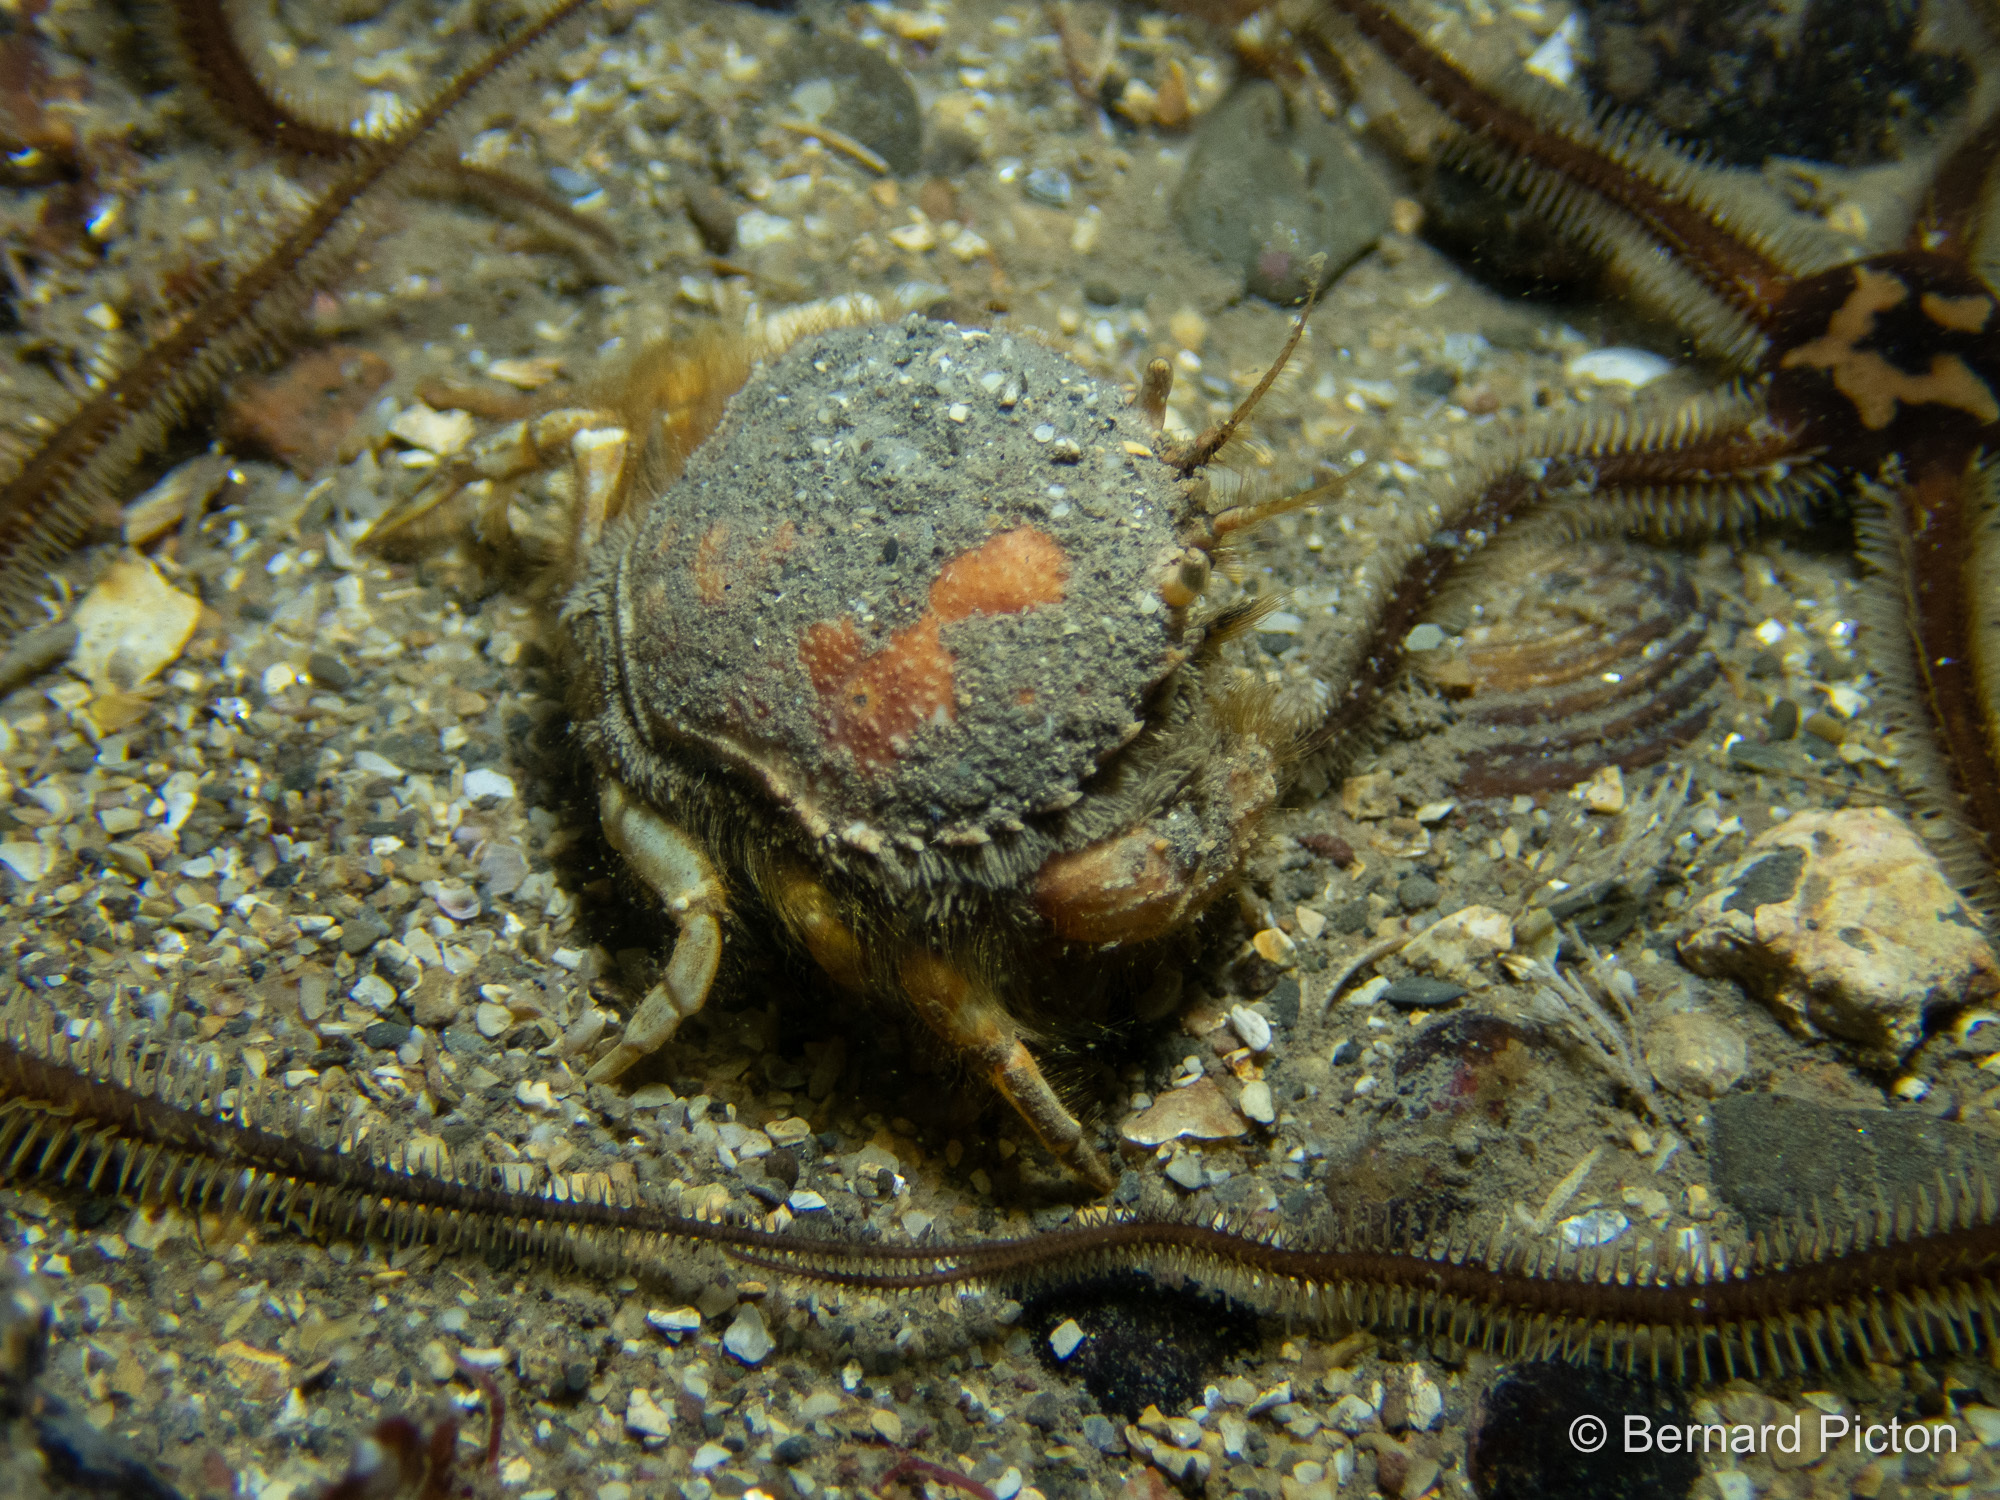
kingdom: Animalia
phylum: Arthropoda
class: Malacostraca
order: Decapoda
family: Atelecyclidae
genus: Atelecyclus
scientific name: Atelecyclus rotundatus
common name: Circular crab
